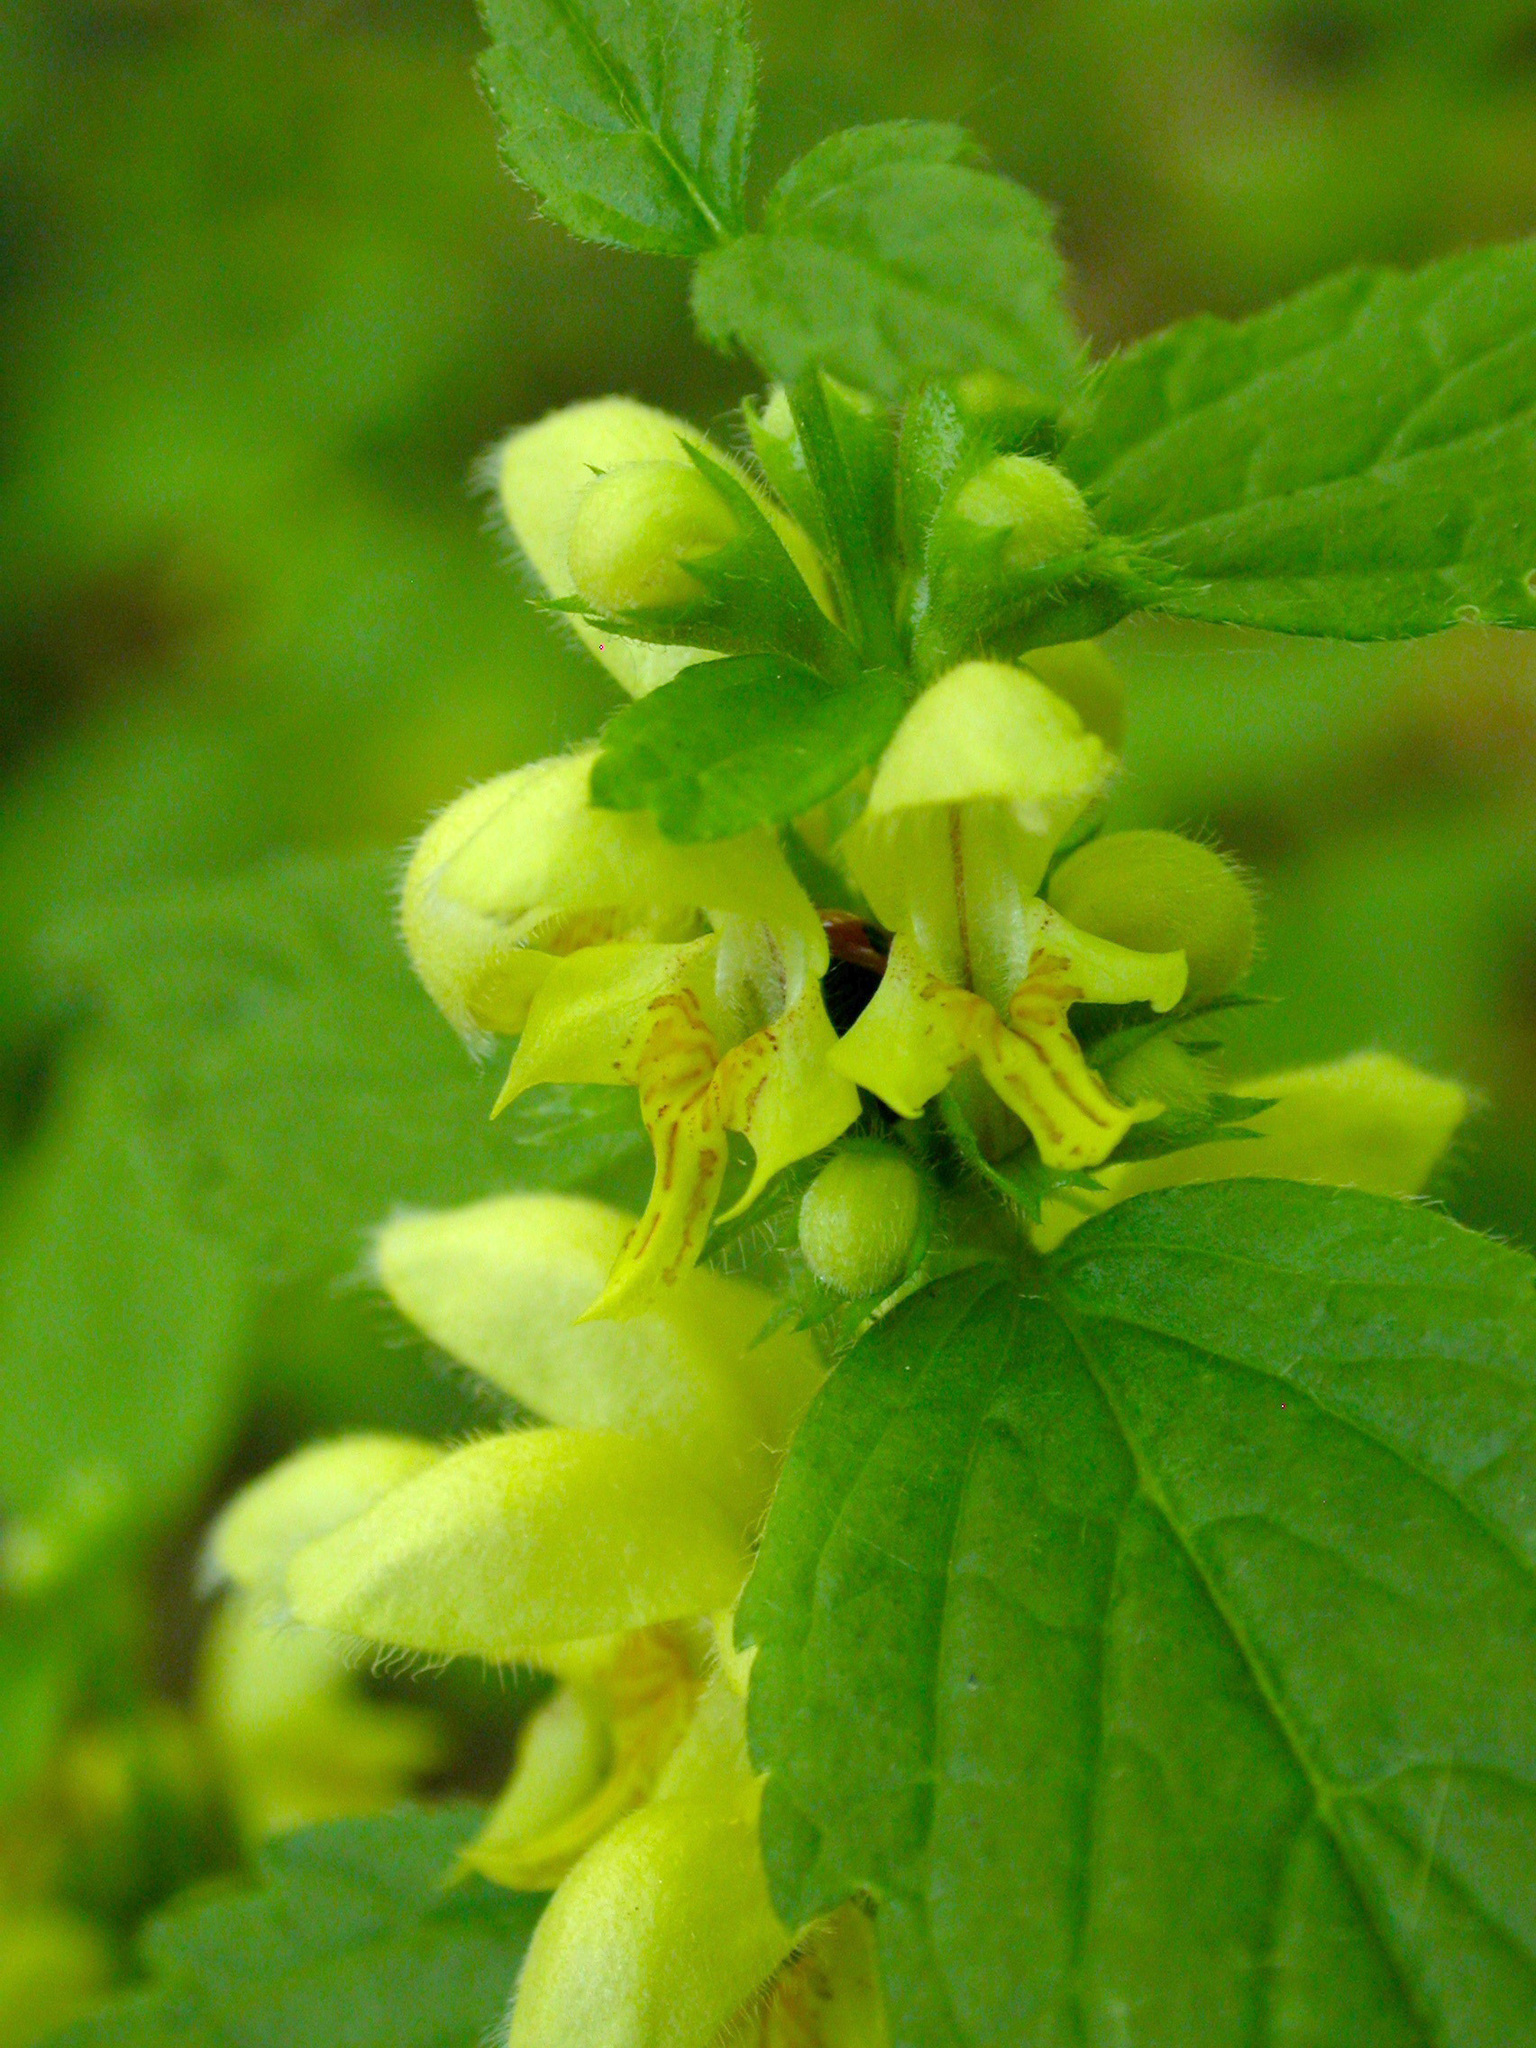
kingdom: Plantae
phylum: Tracheophyta
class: Magnoliopsida
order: Lamiales
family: Lamiaceae
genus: Lamium
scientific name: Lamium galeobdolon
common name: Yellow archangel
